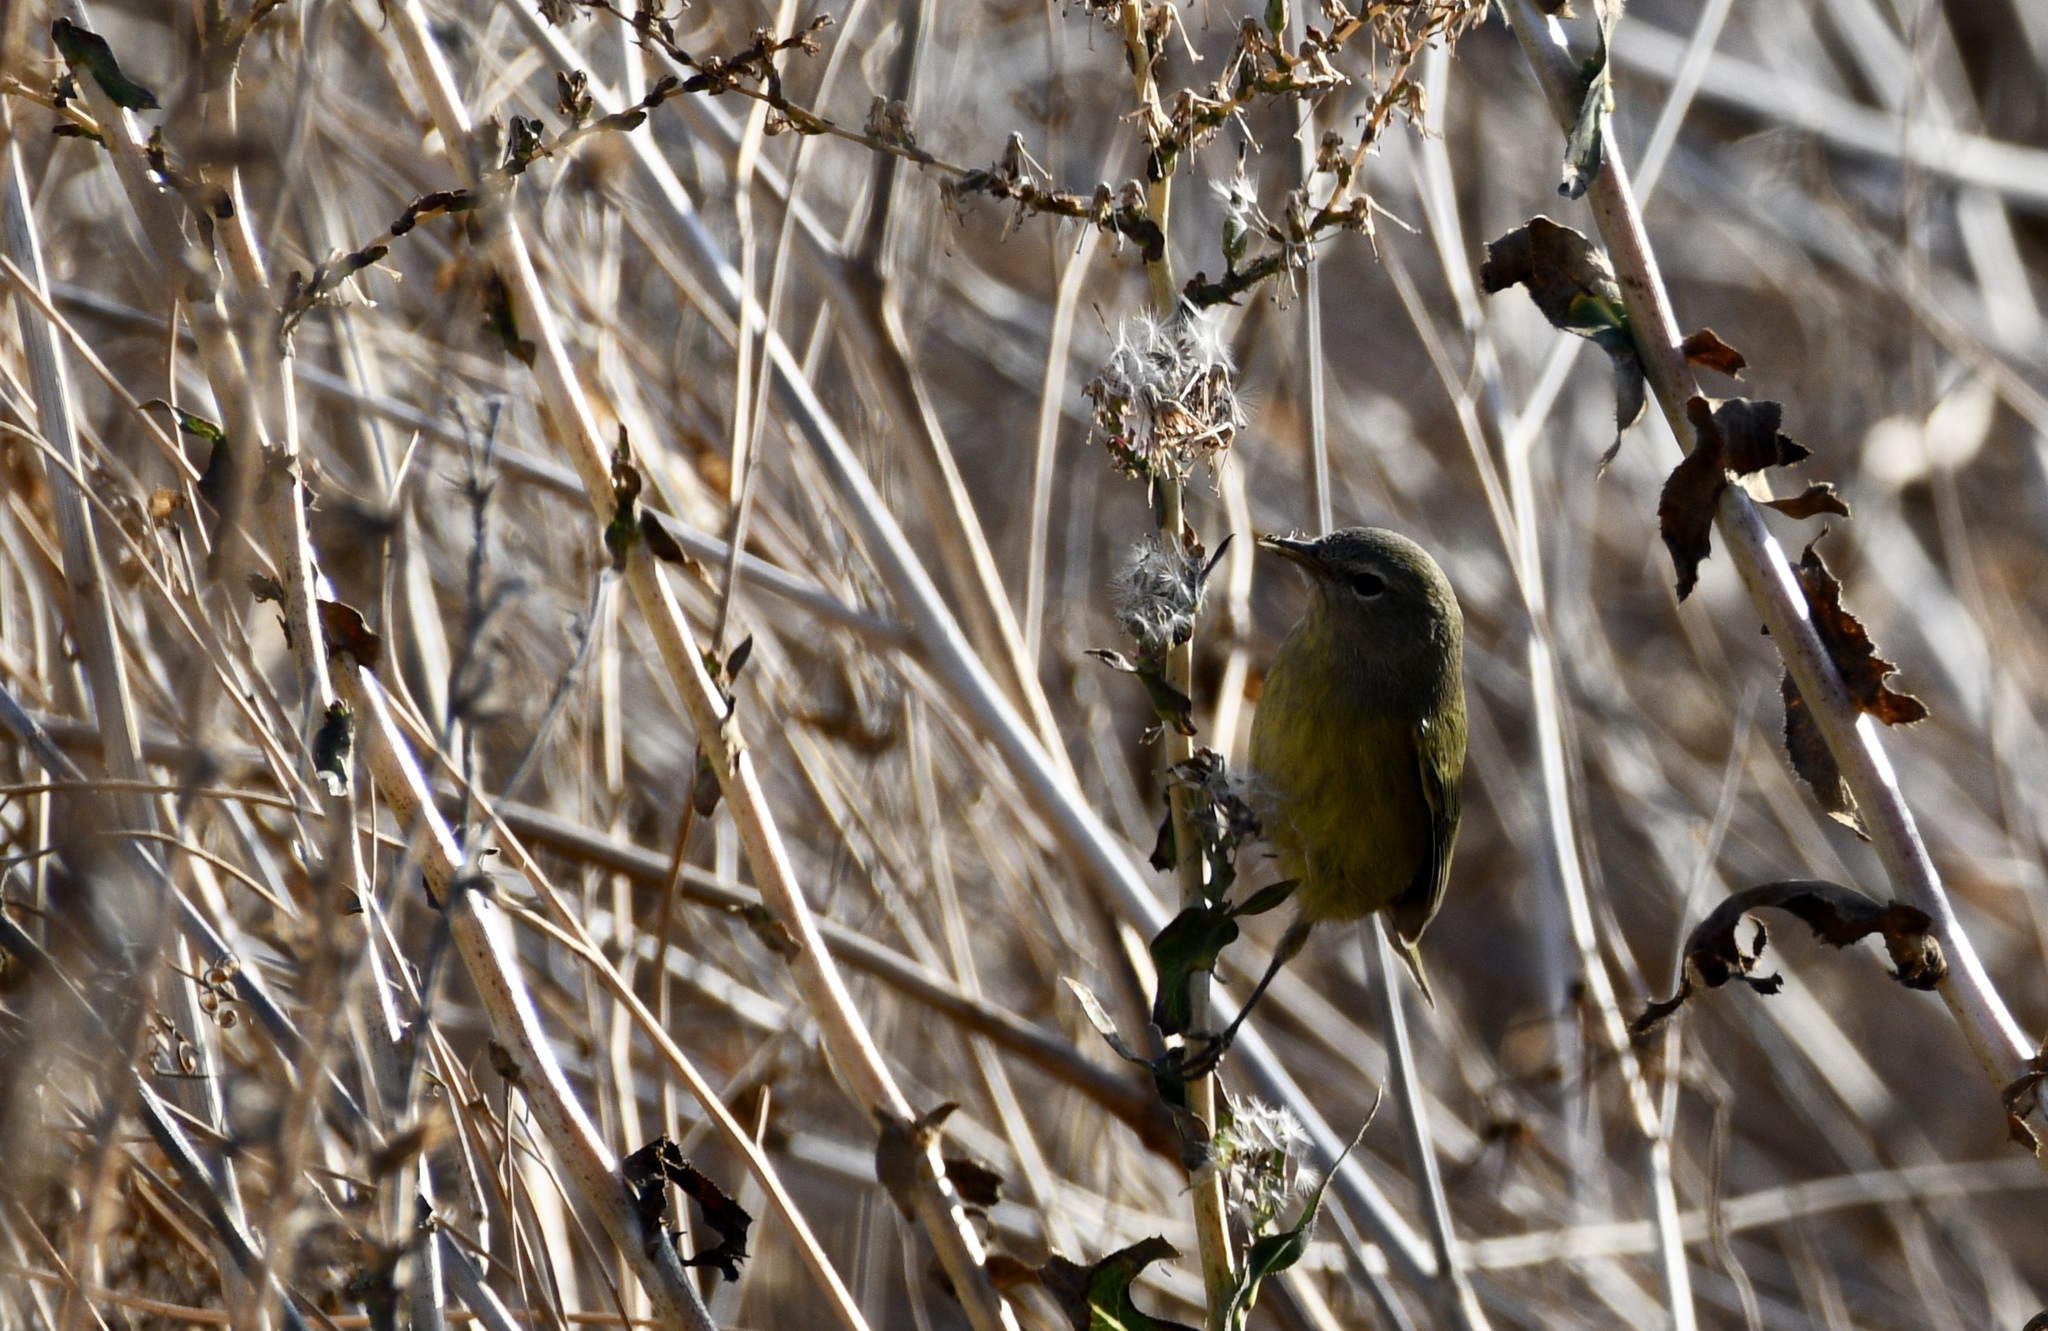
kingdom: Animalia
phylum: Chordata
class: Aves
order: Passeriformes
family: Parulidae
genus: Leiothlypis
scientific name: Leiothlypis celata
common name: Orange-crowned warbler
